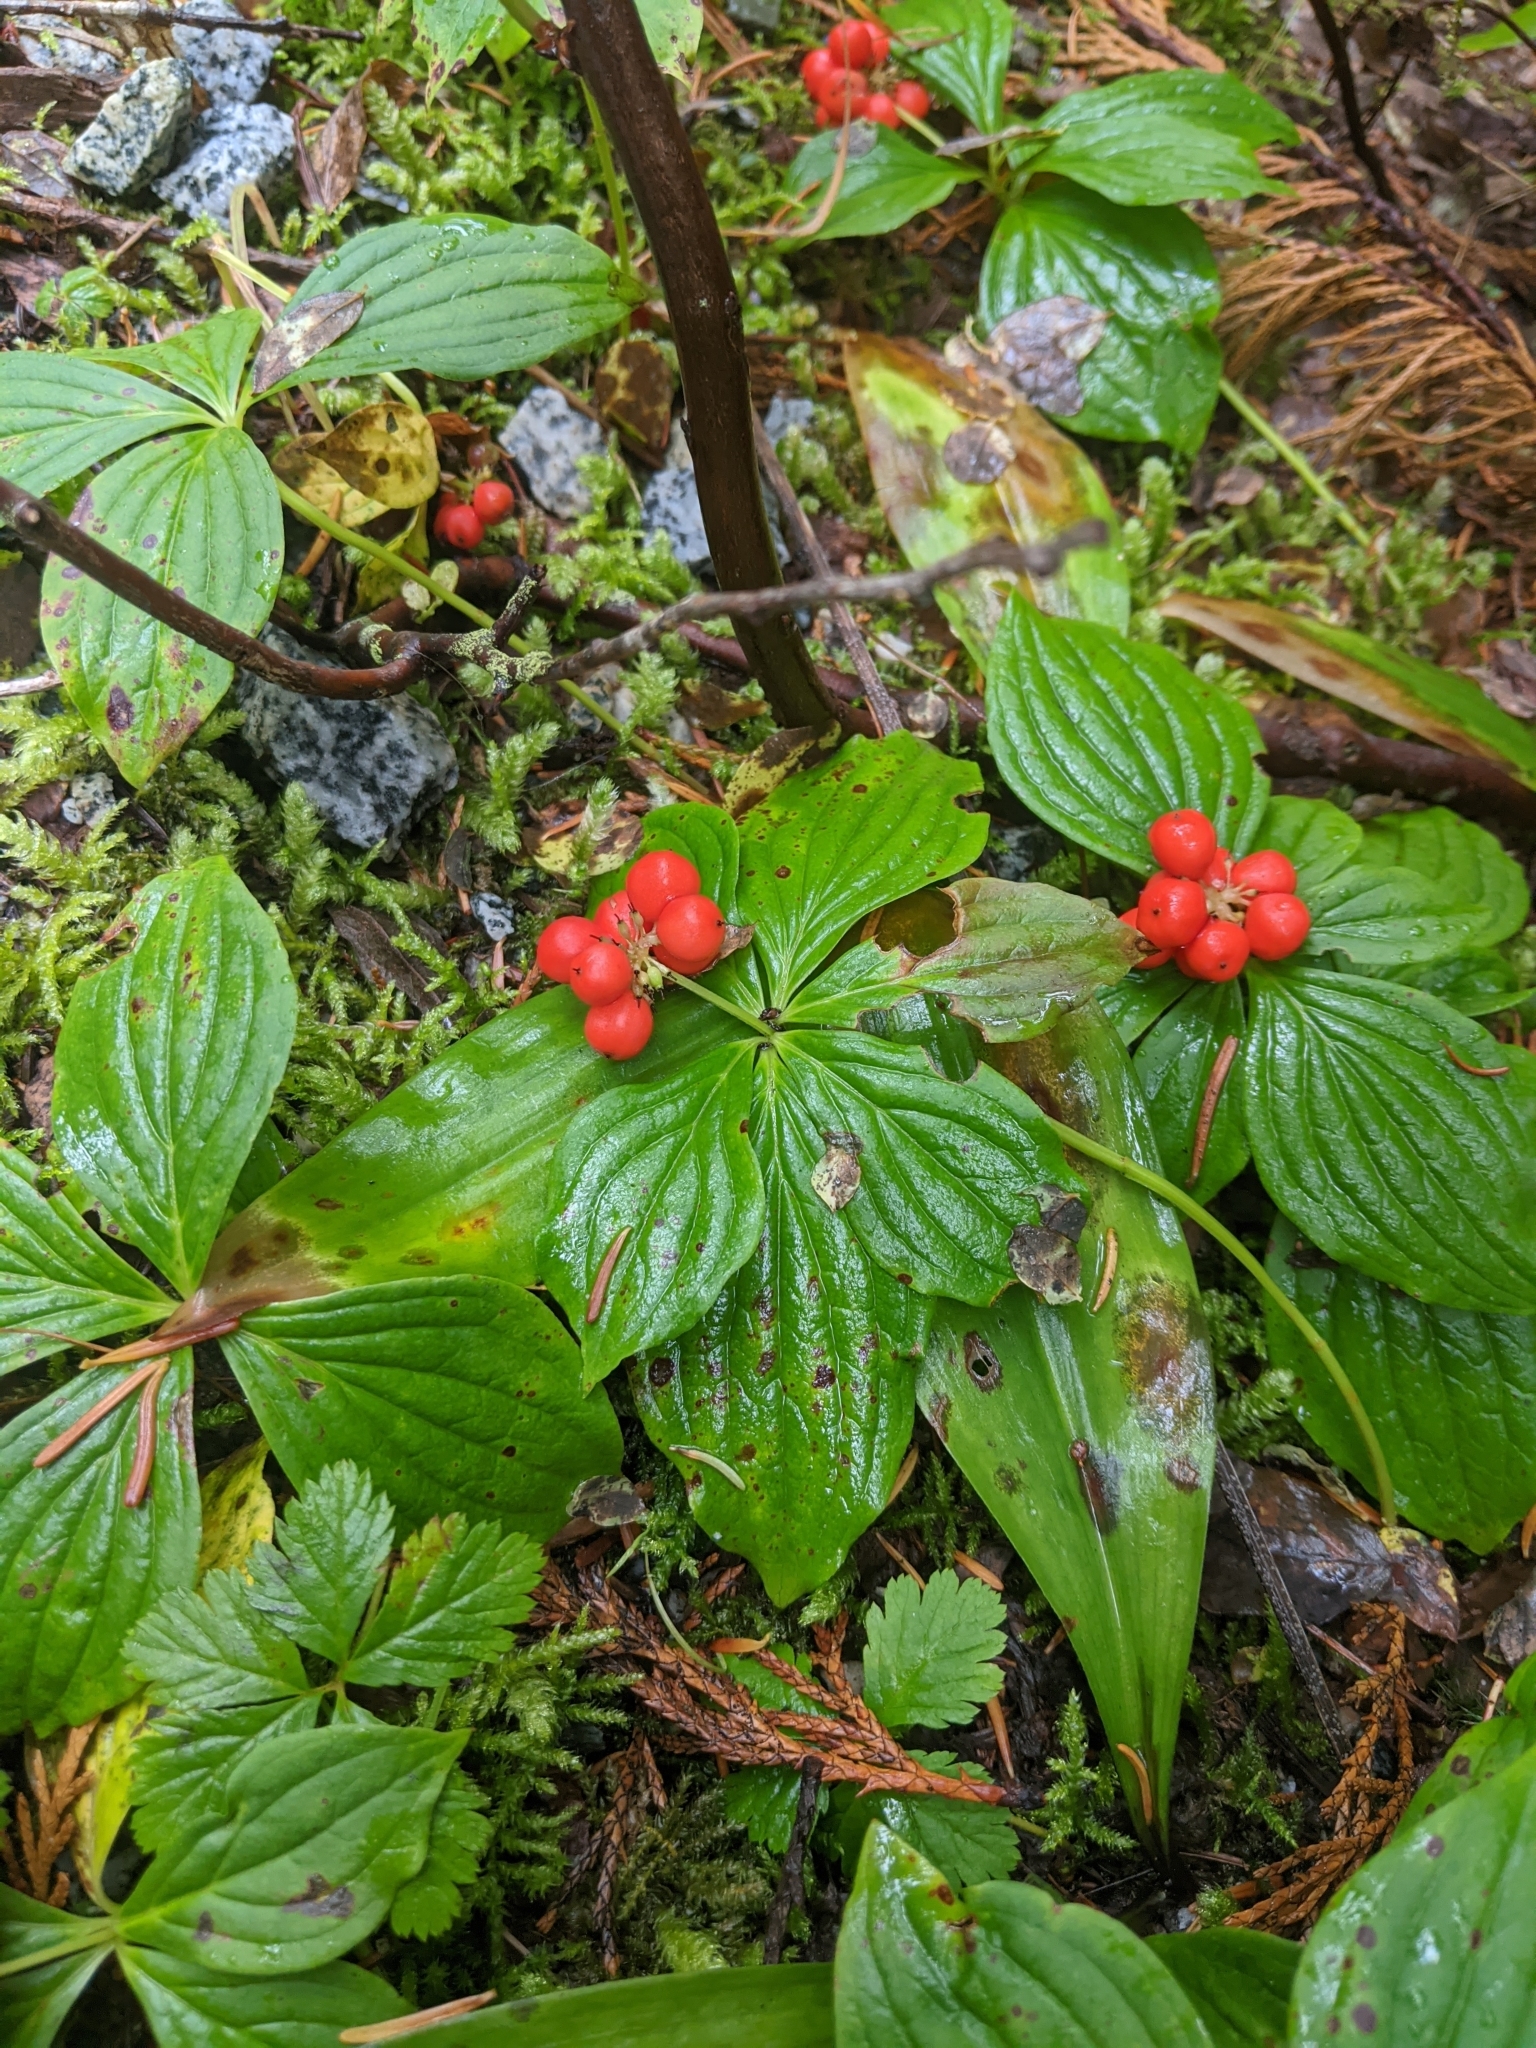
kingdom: Plantae
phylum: Tracheophyta
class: Magnoliopsida
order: Cornales
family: Cornaceae
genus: Cornus
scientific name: Cornus unalaschkensis
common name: Alaska bunchberry
